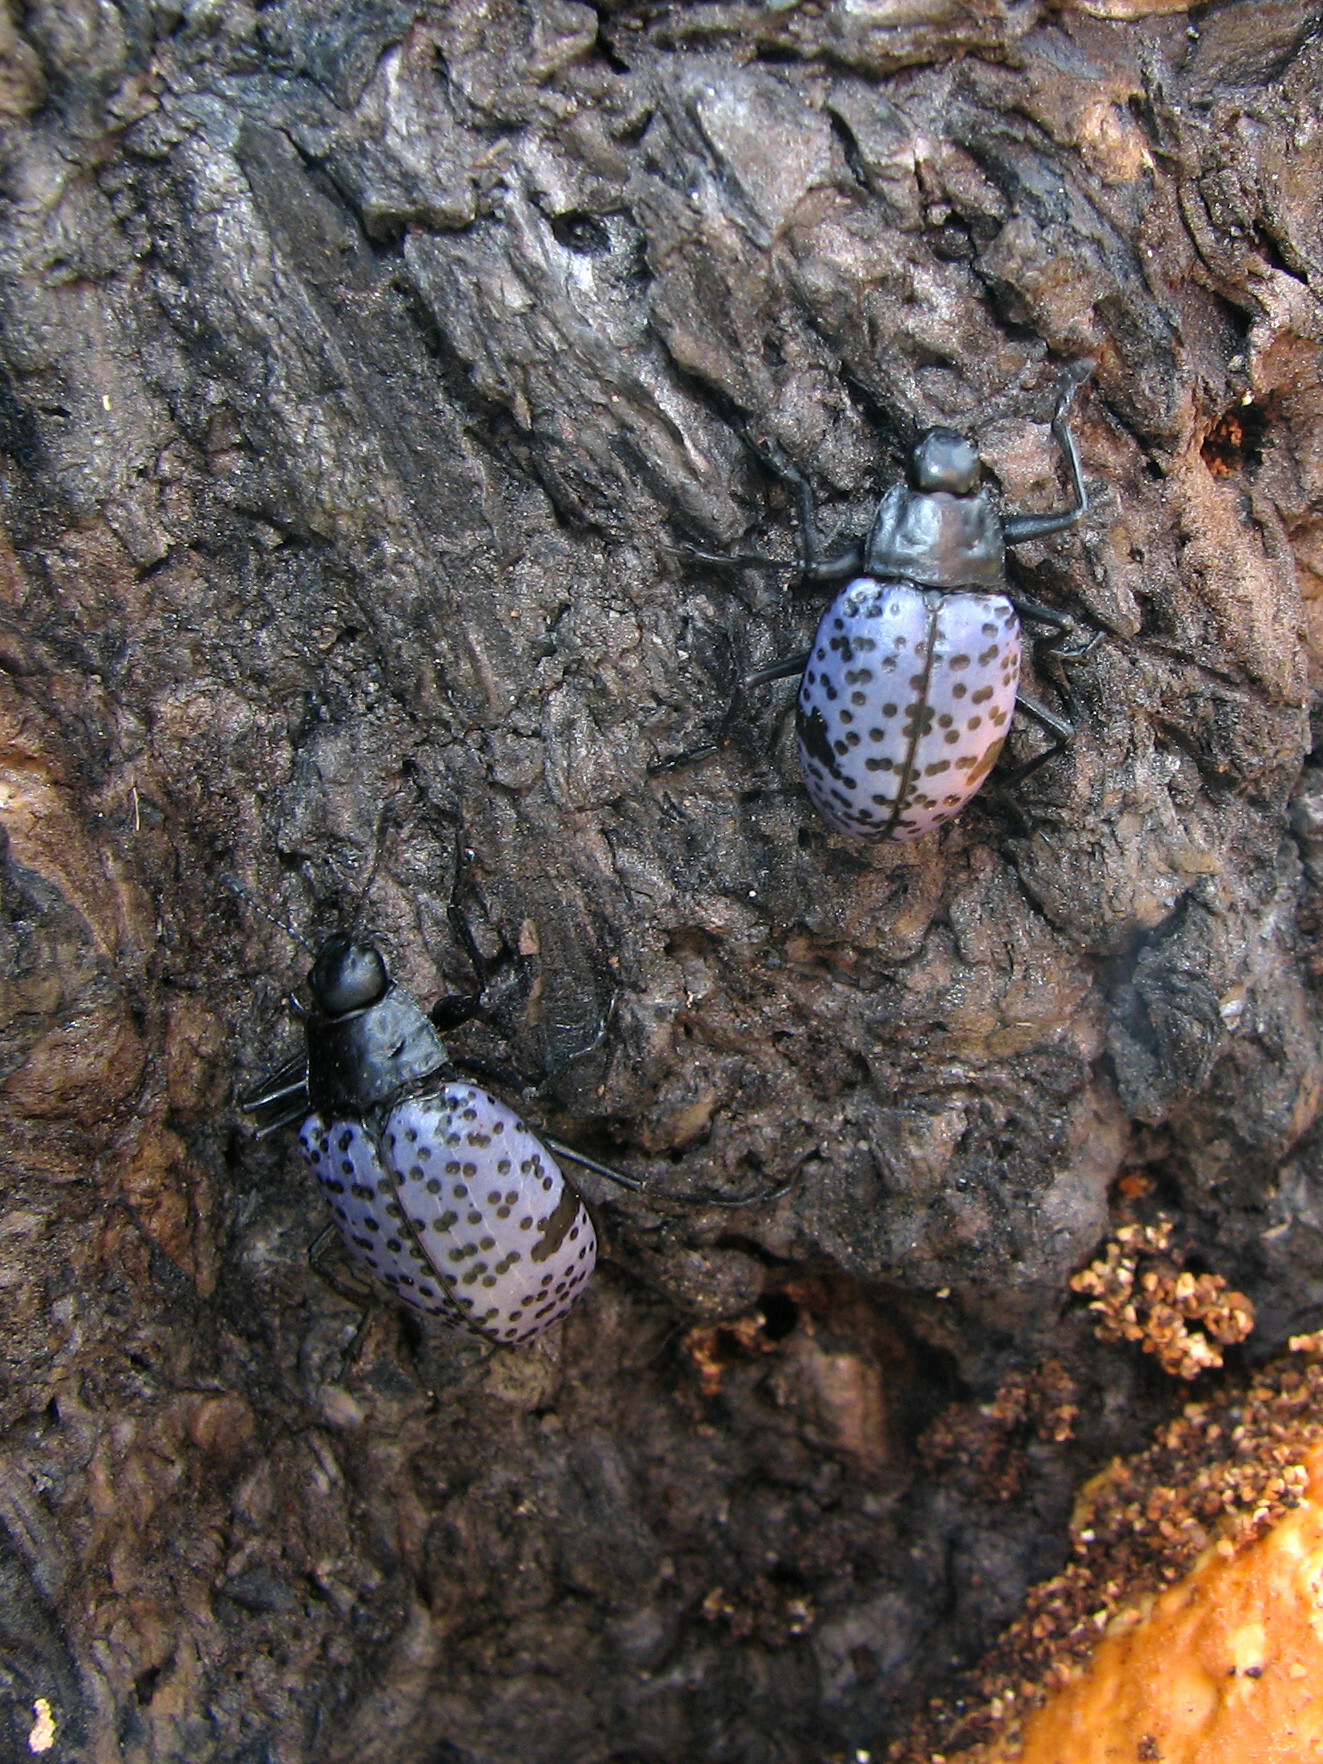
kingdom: Animalia
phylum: Arthropoda
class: Insecta
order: Coleoptera
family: Erotylidae
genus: Gibbifer
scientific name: Gibbifer californicus
